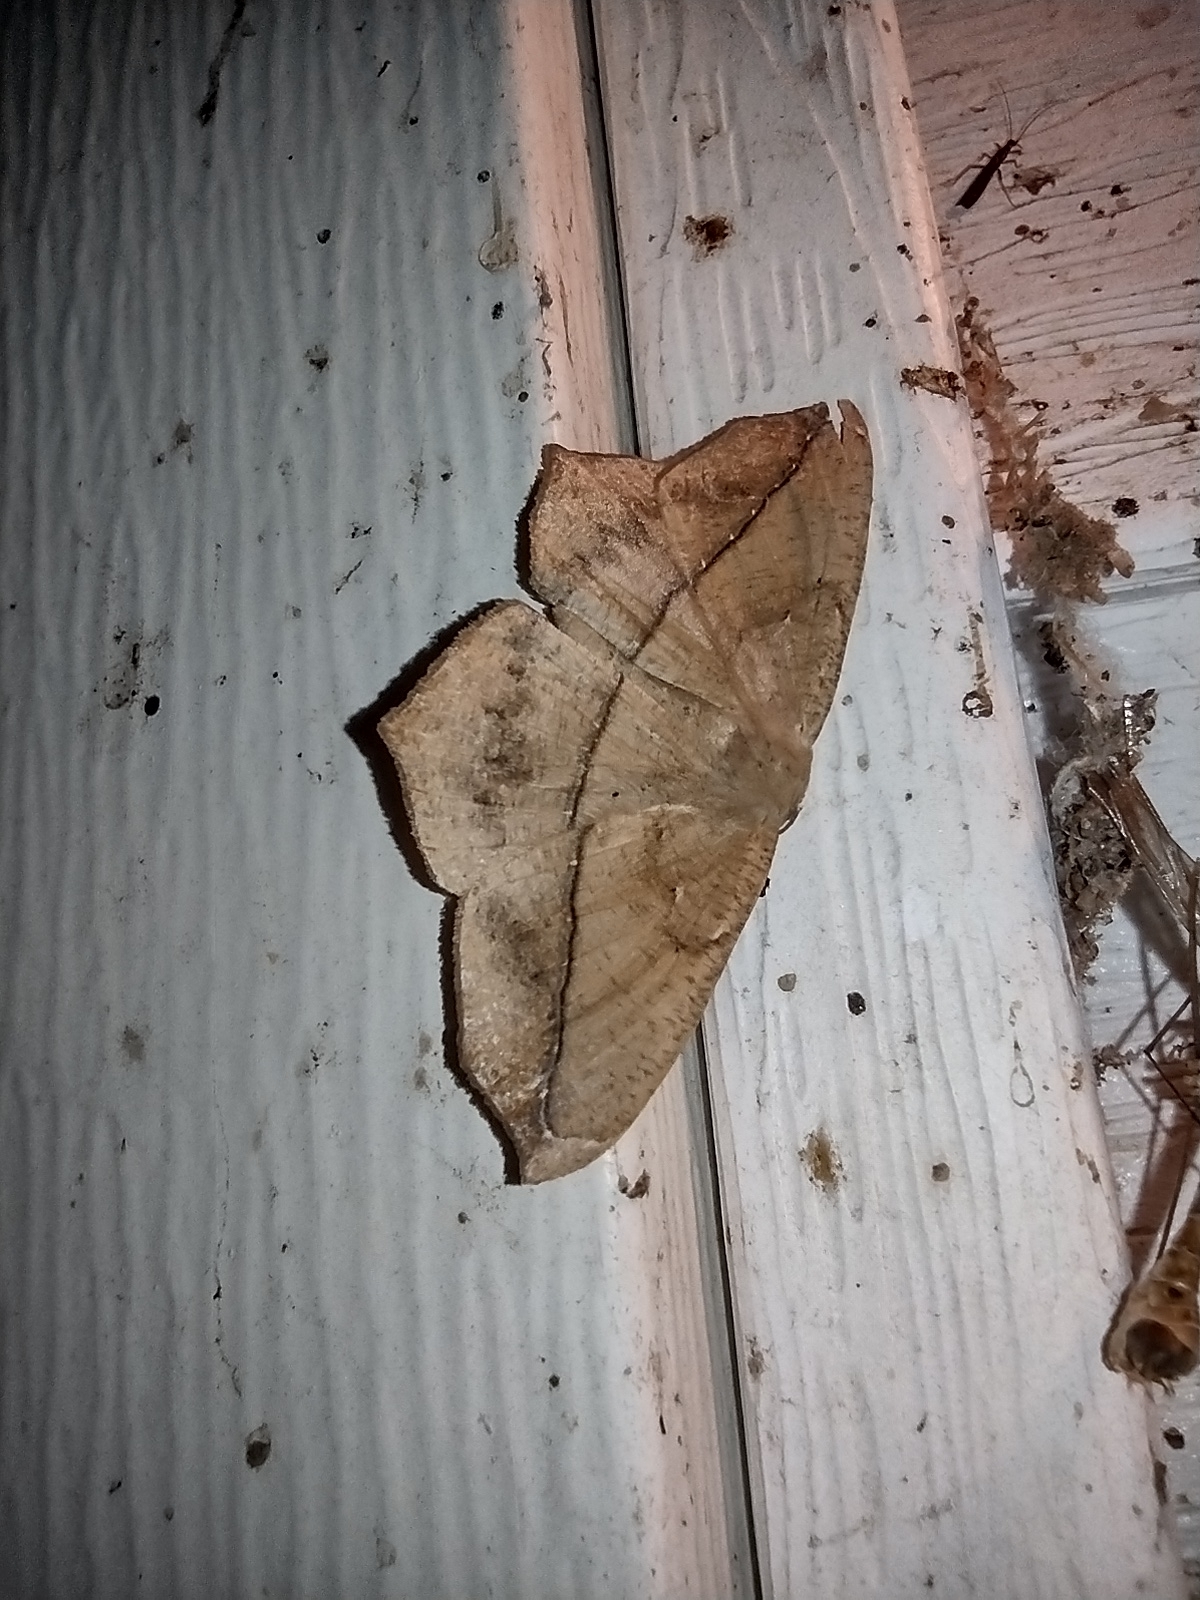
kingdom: Animalia
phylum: Arthropoda
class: Insecta
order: Lepidoptera
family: Geometridae
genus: Prochoerodes
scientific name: Prochoerodes lineola
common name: Large maple spanworm
